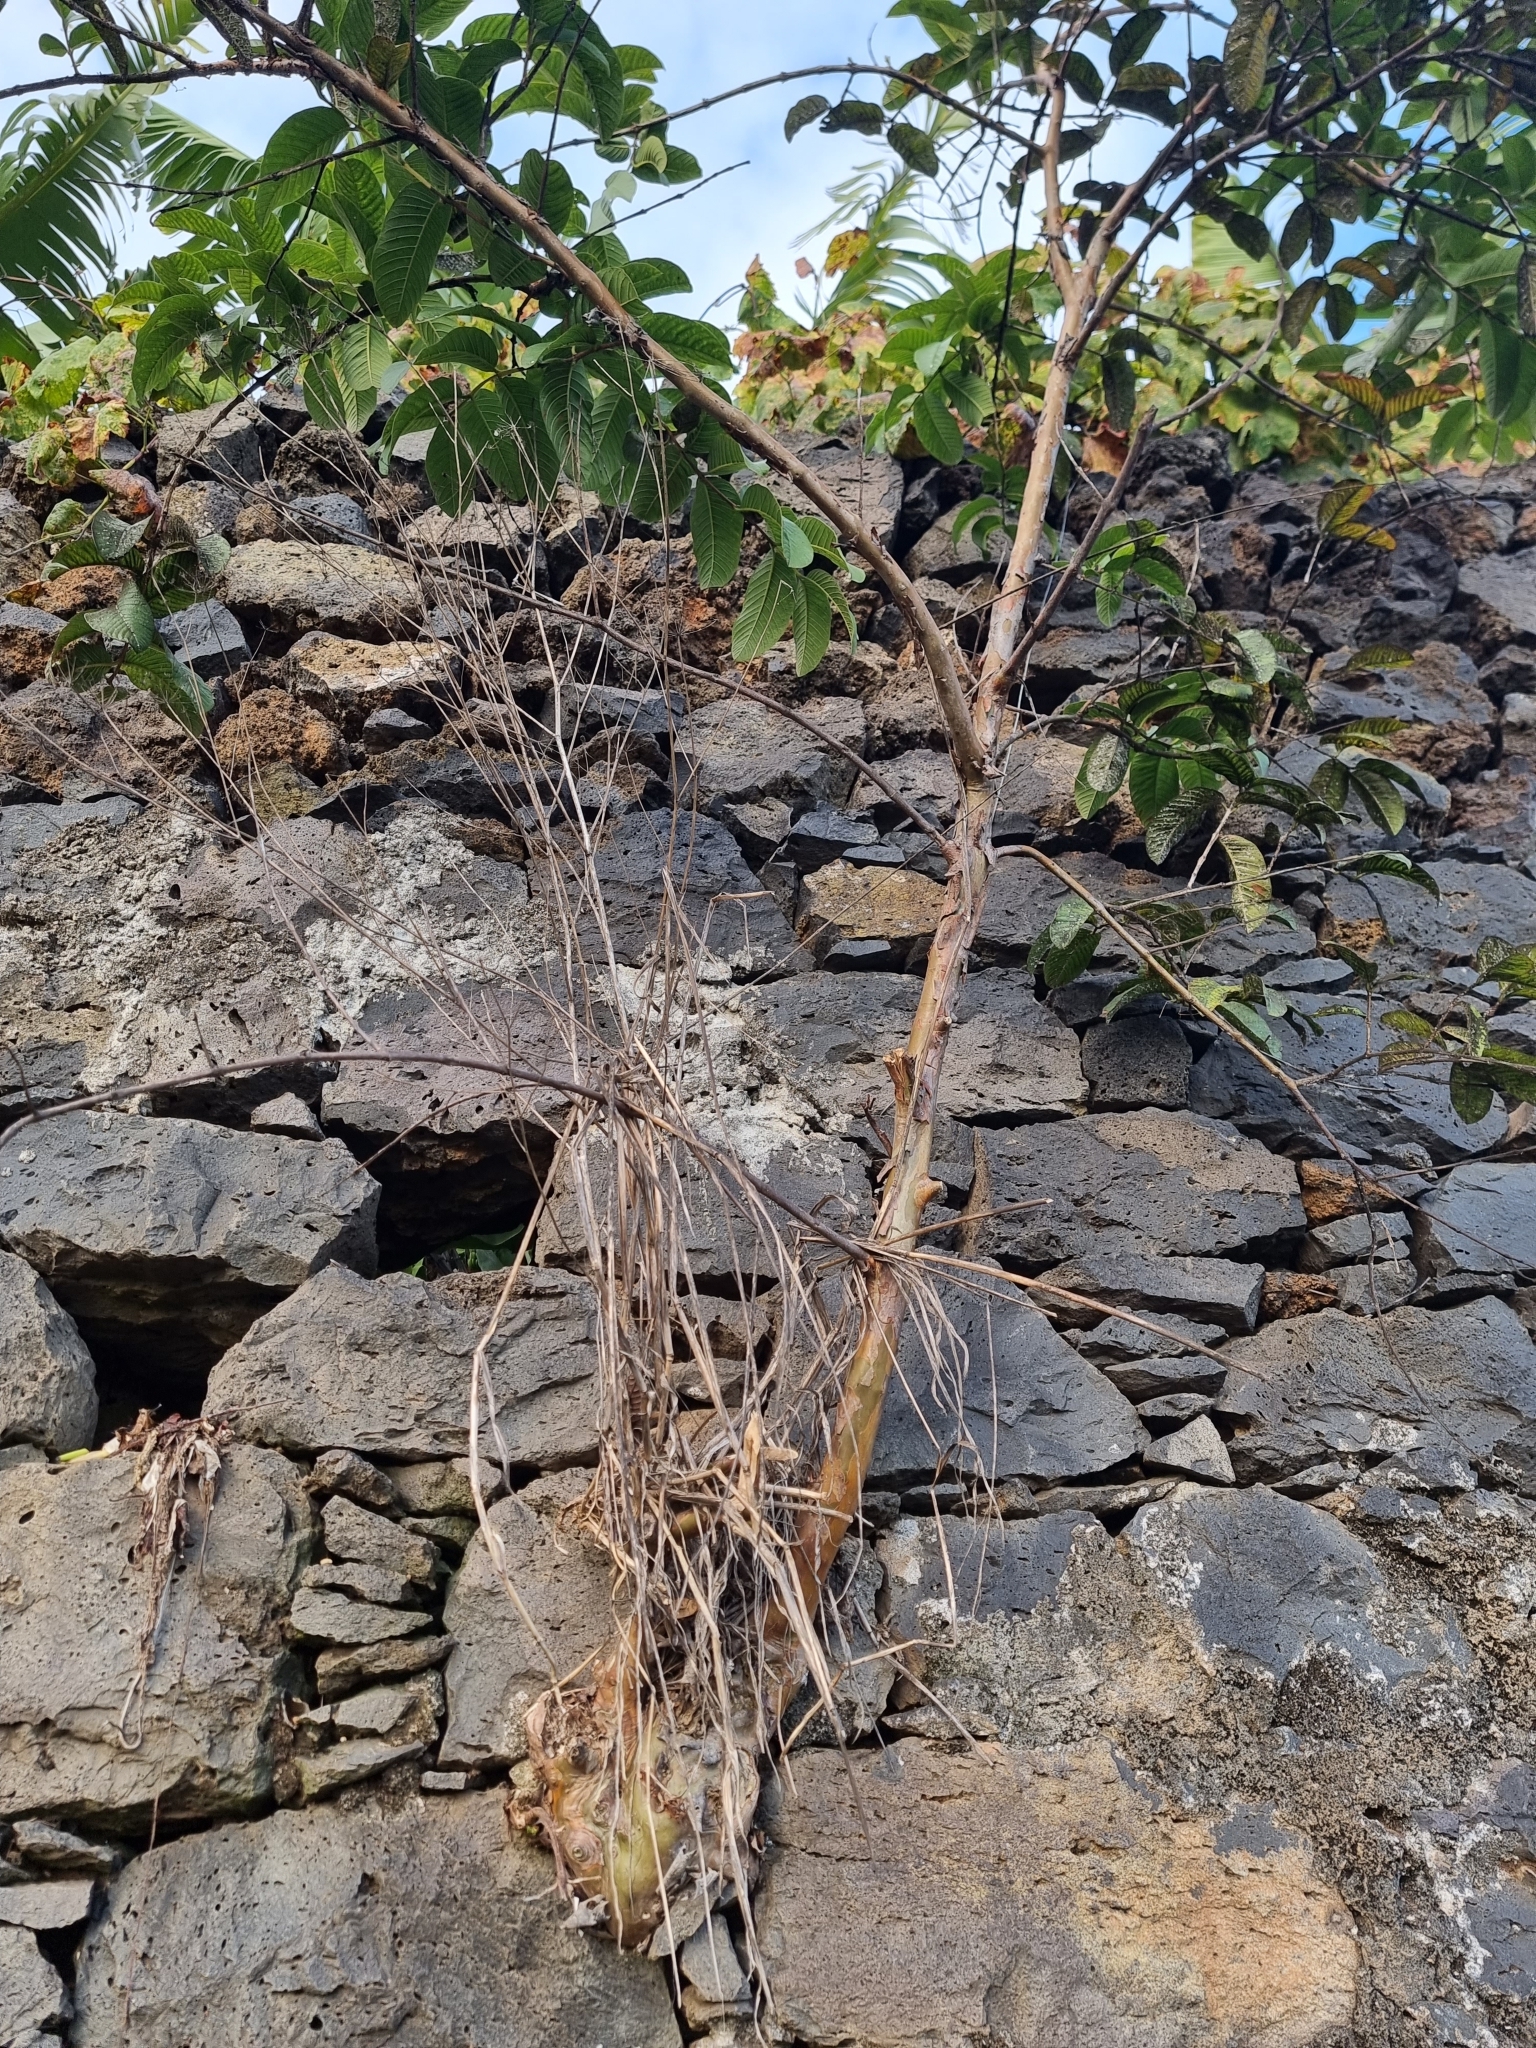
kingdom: Plantae
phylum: Tracheophyta
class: Magnoliopsida
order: Myrtales
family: Myrtaceae
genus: Psidium
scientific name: Psidium guajava
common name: Guava
